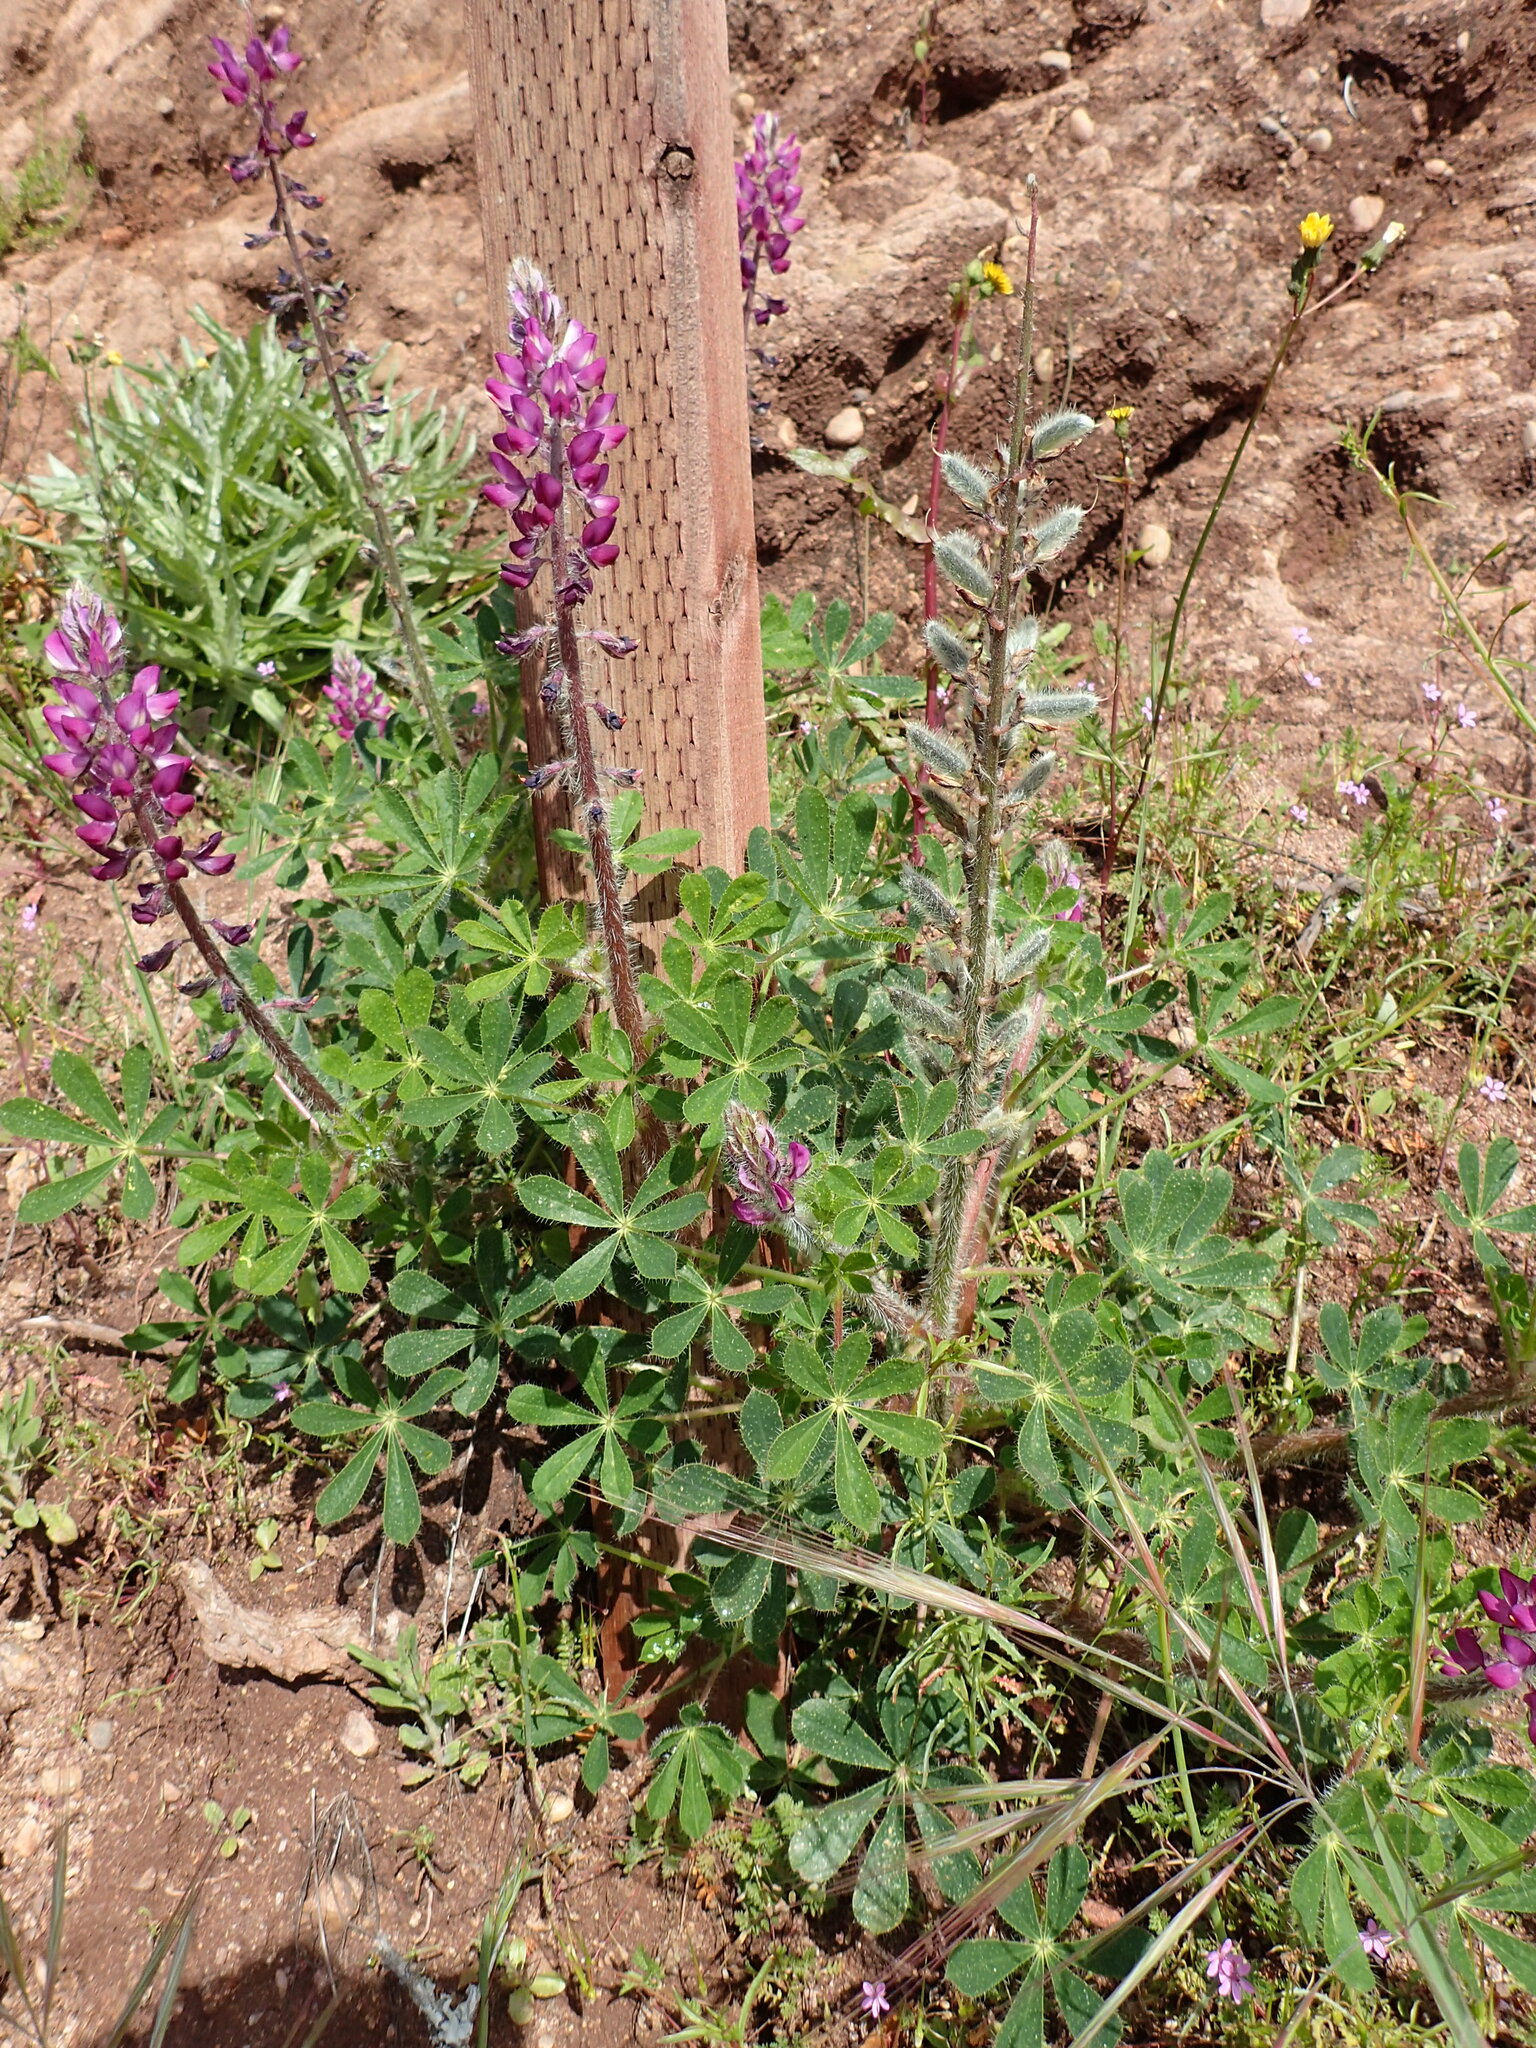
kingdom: Plantae
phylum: Tracheophyta
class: Magnoliopsida
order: Fabales
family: Fabaceae
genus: Lupinus
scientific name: Lupinus hirsutissimus
